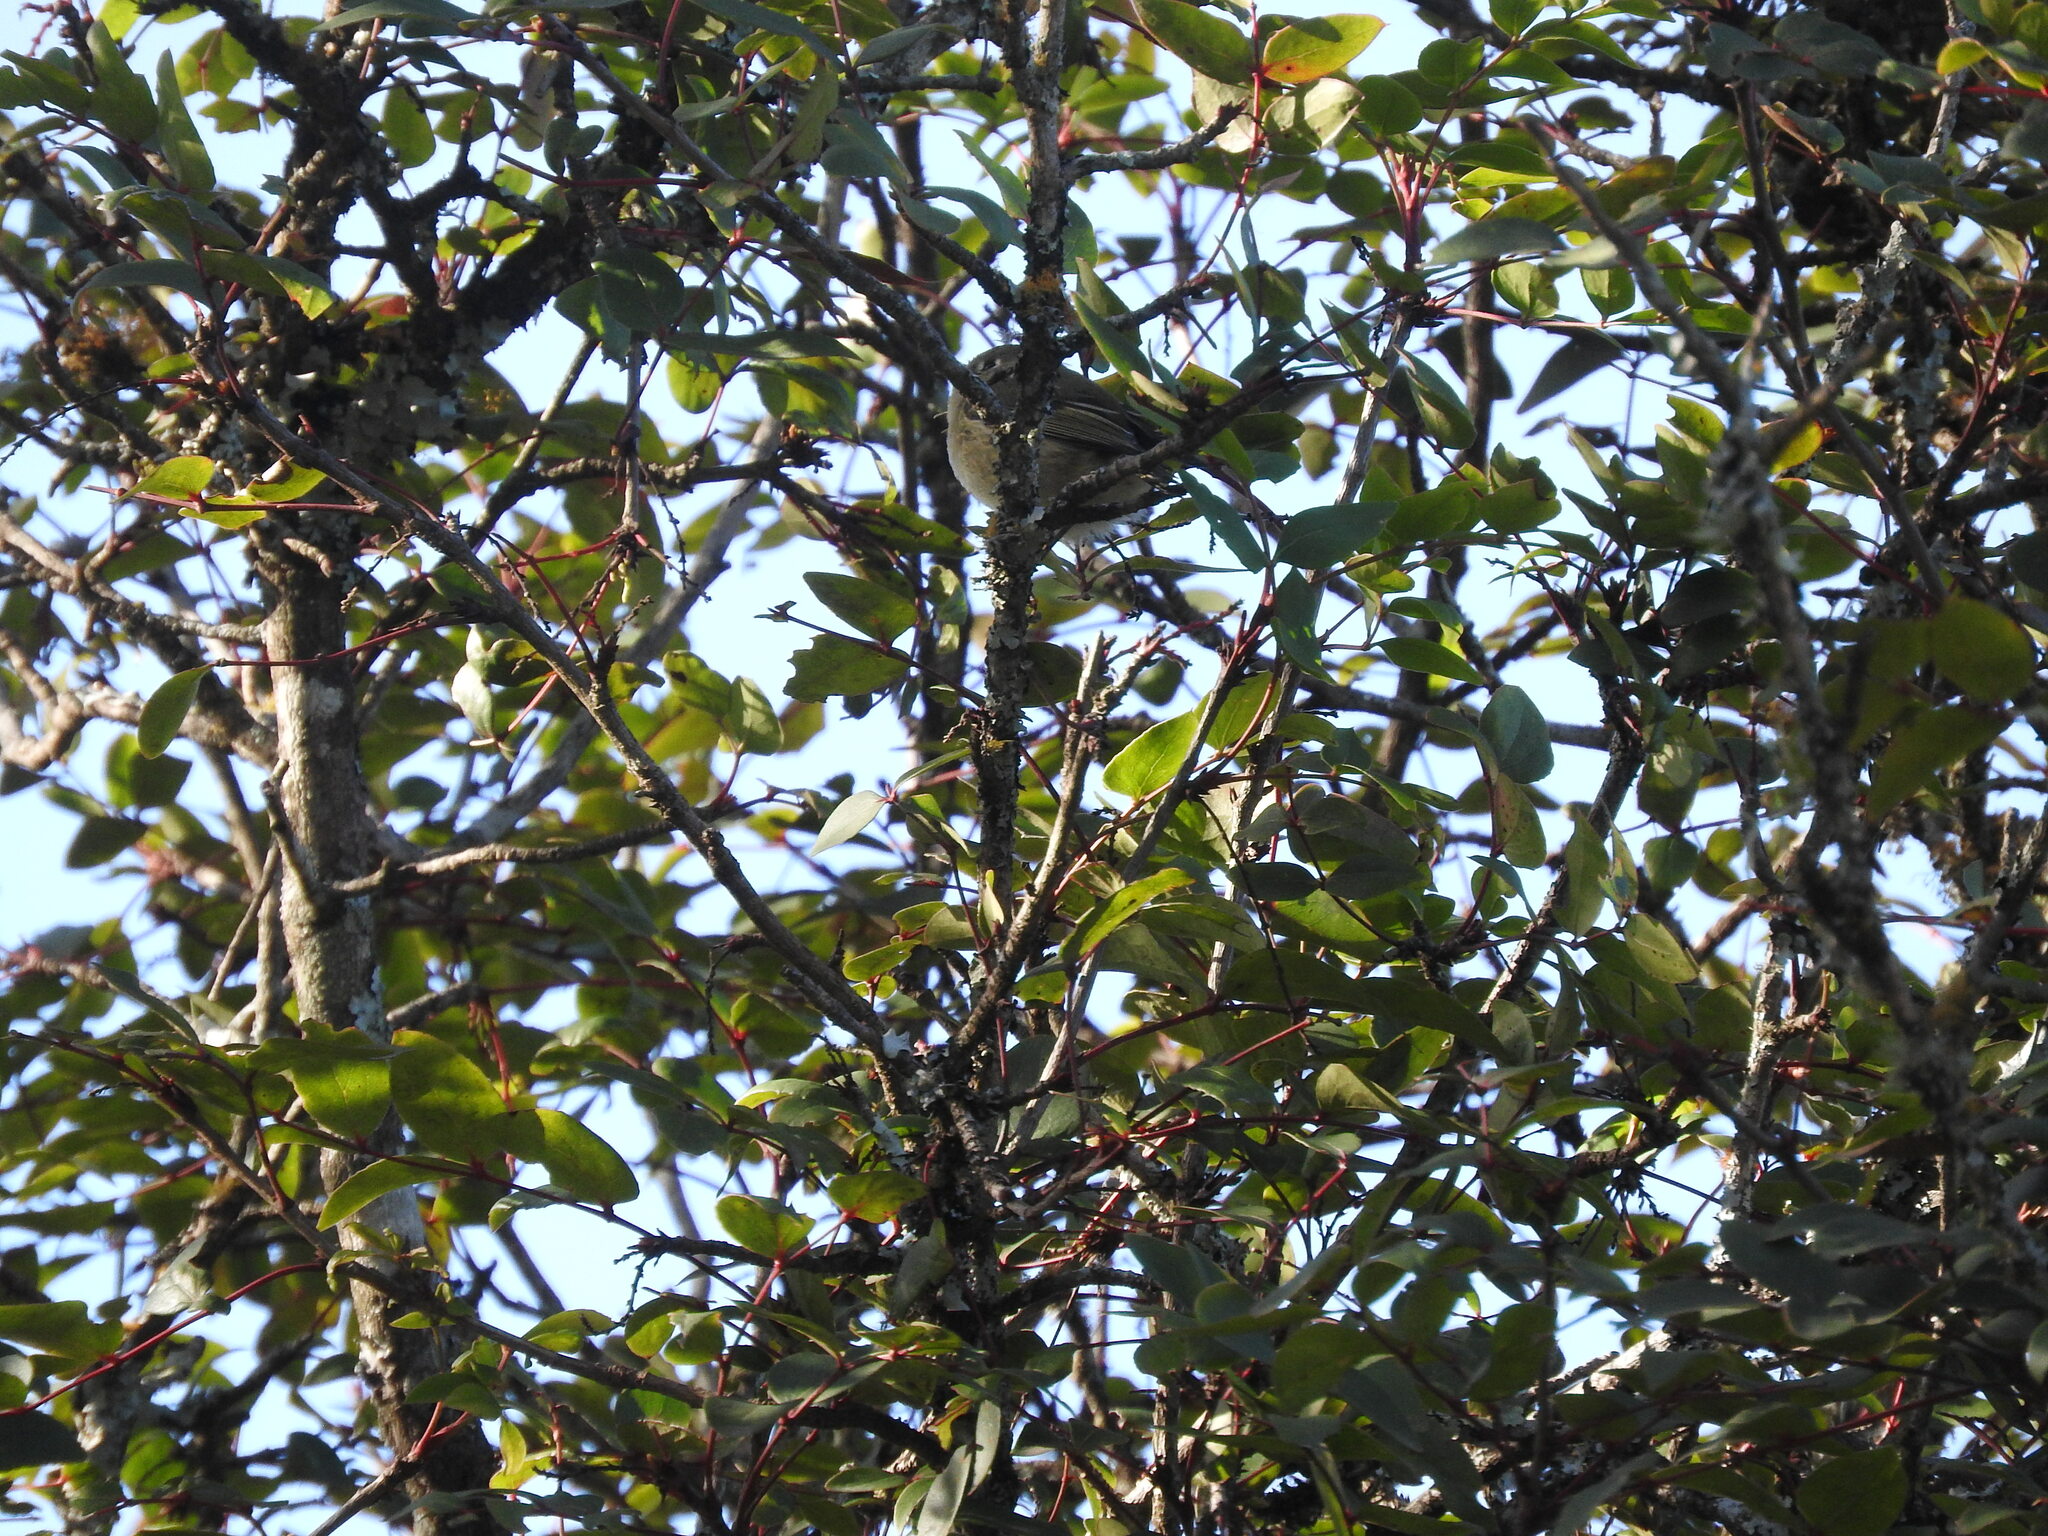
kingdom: Animalia
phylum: Chordata
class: Aves
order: Passeriformes
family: Regulidae
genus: Regulus
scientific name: Regulus calendula
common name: Ruby-crowned kinglet
